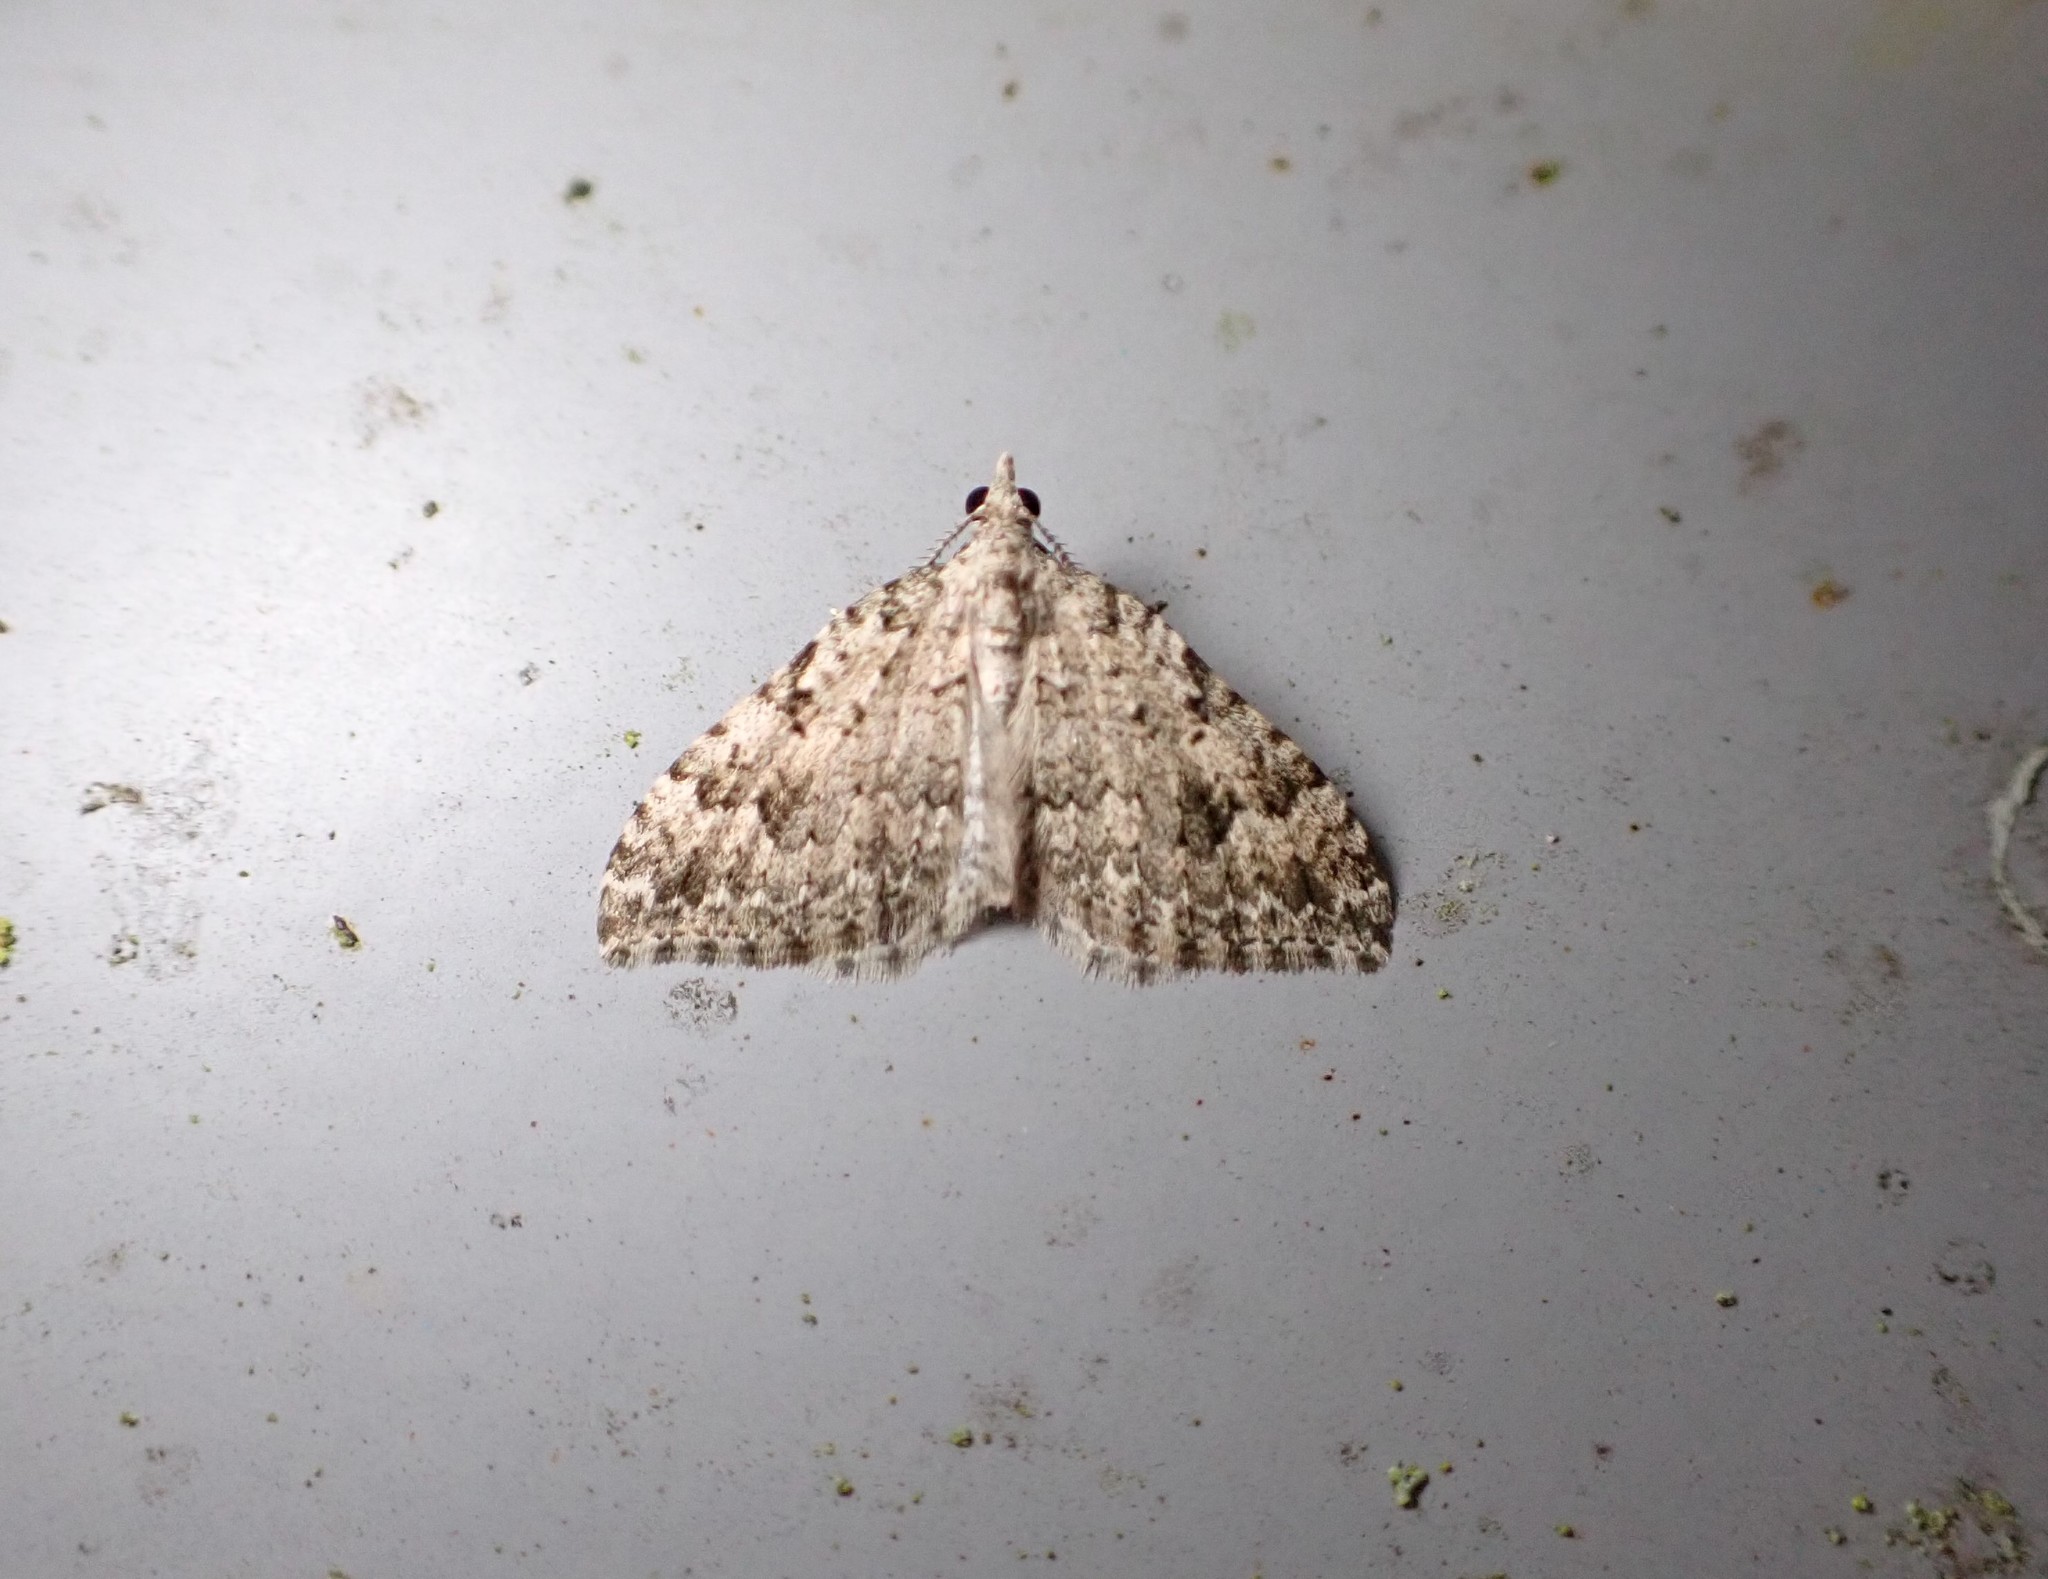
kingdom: Animalia
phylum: Arthropoda
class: Insecta
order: Lepidoptera
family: Geometridae
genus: Helastia
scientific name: Helastia cinerearia
